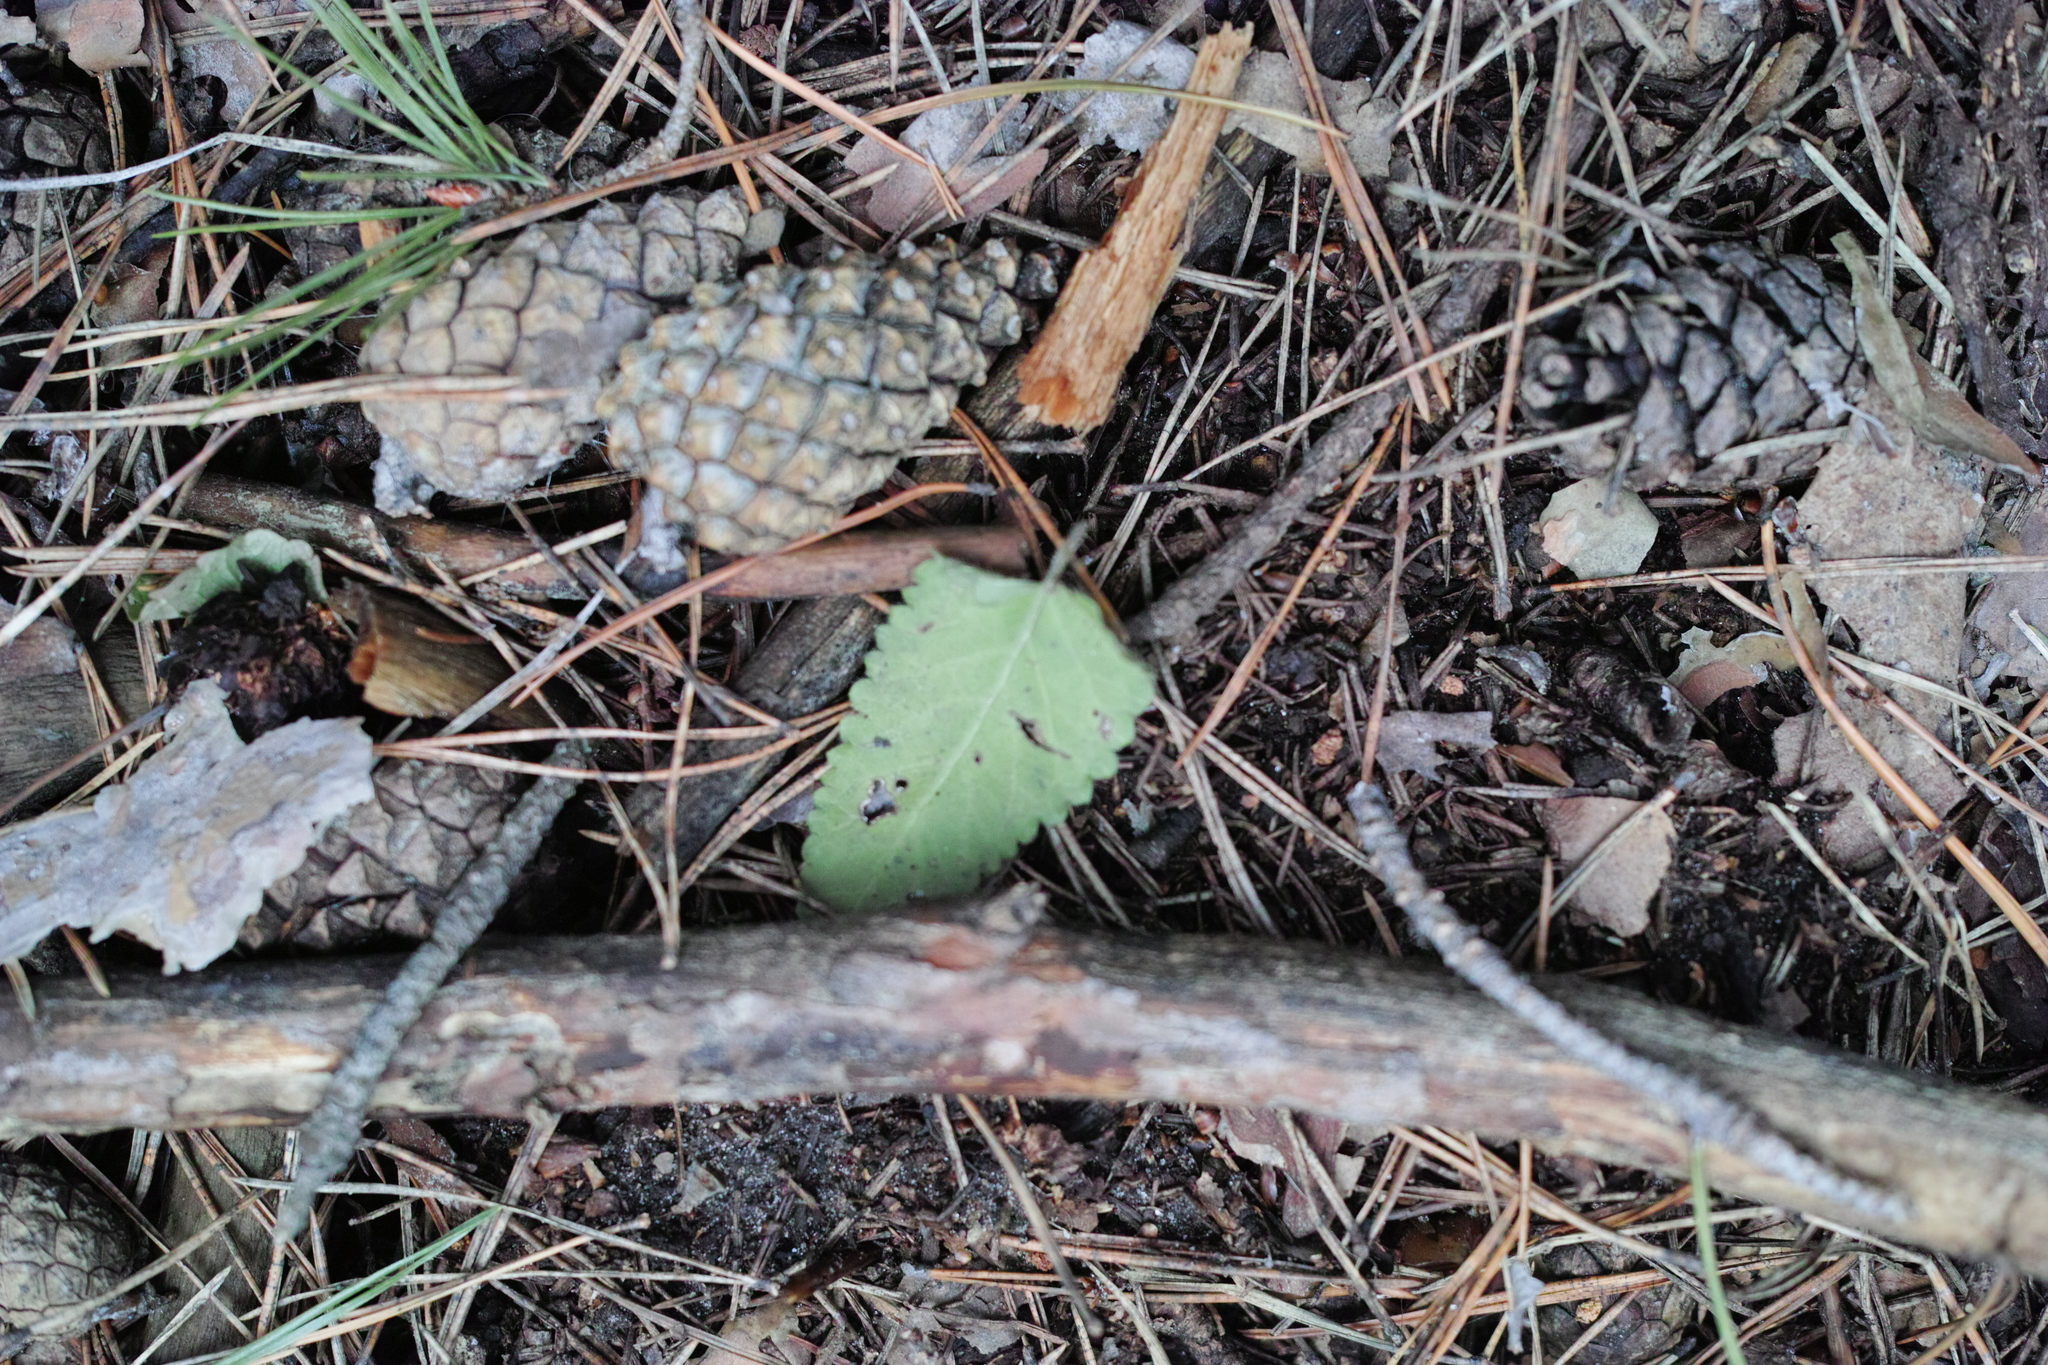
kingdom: Plantae
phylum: Tracheophyta
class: Magnoliopsida
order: Lamiales
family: Lamiaceae
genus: Betonica
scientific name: Betonica officinalis
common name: Bishop's-wort
